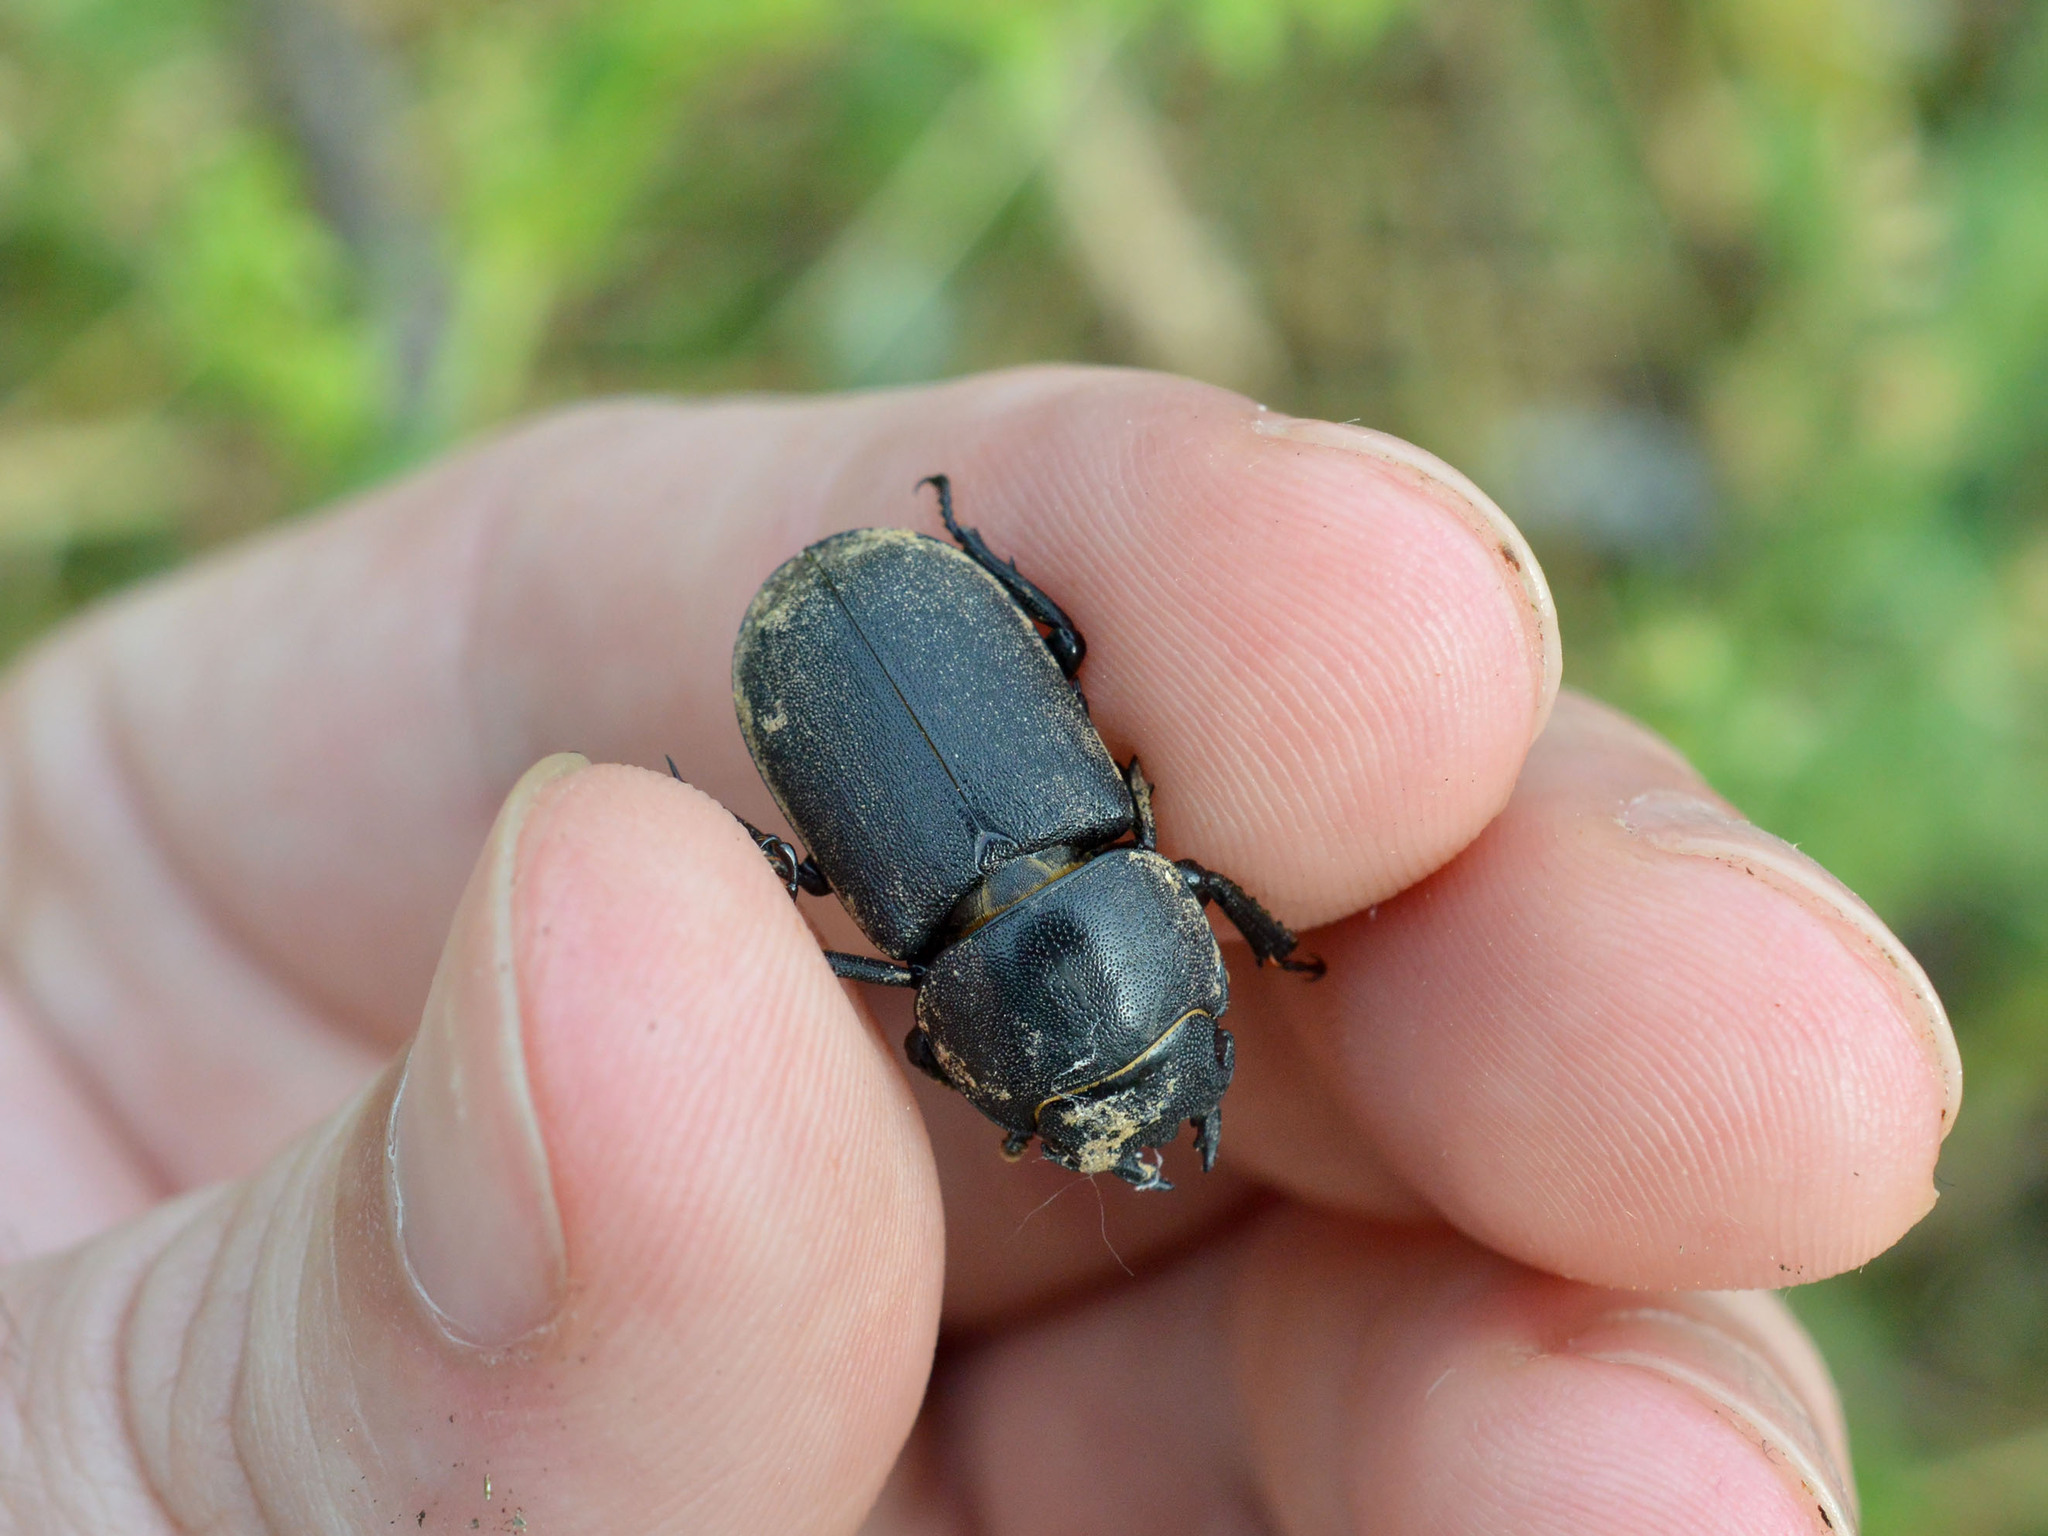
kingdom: Animalia
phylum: Arthropoda
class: Insecta
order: Coleoptera
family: Lucanidae
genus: Dorcus
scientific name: Dorcus parallelipipedus
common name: Lesser stag beetle
